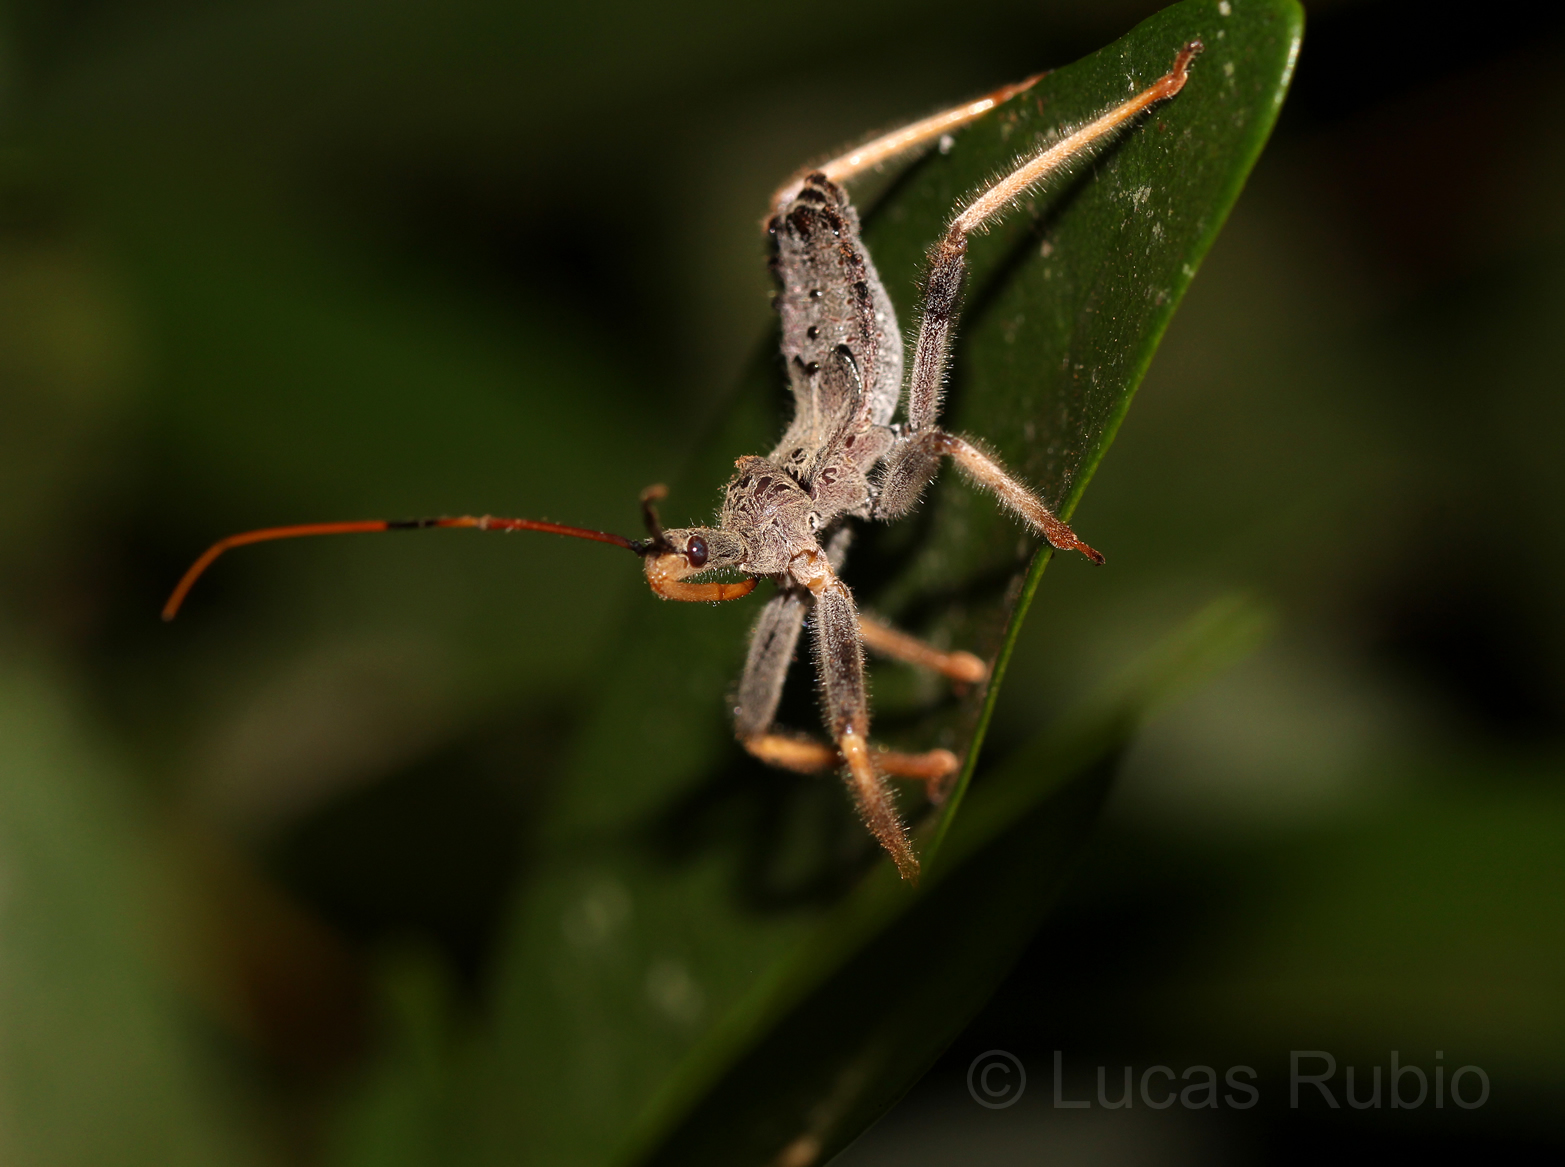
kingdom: Animalia
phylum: Arthropoda
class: Insecta
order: Hemiptera
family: Reduviidae
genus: Arilus
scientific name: Arilus carinatus
